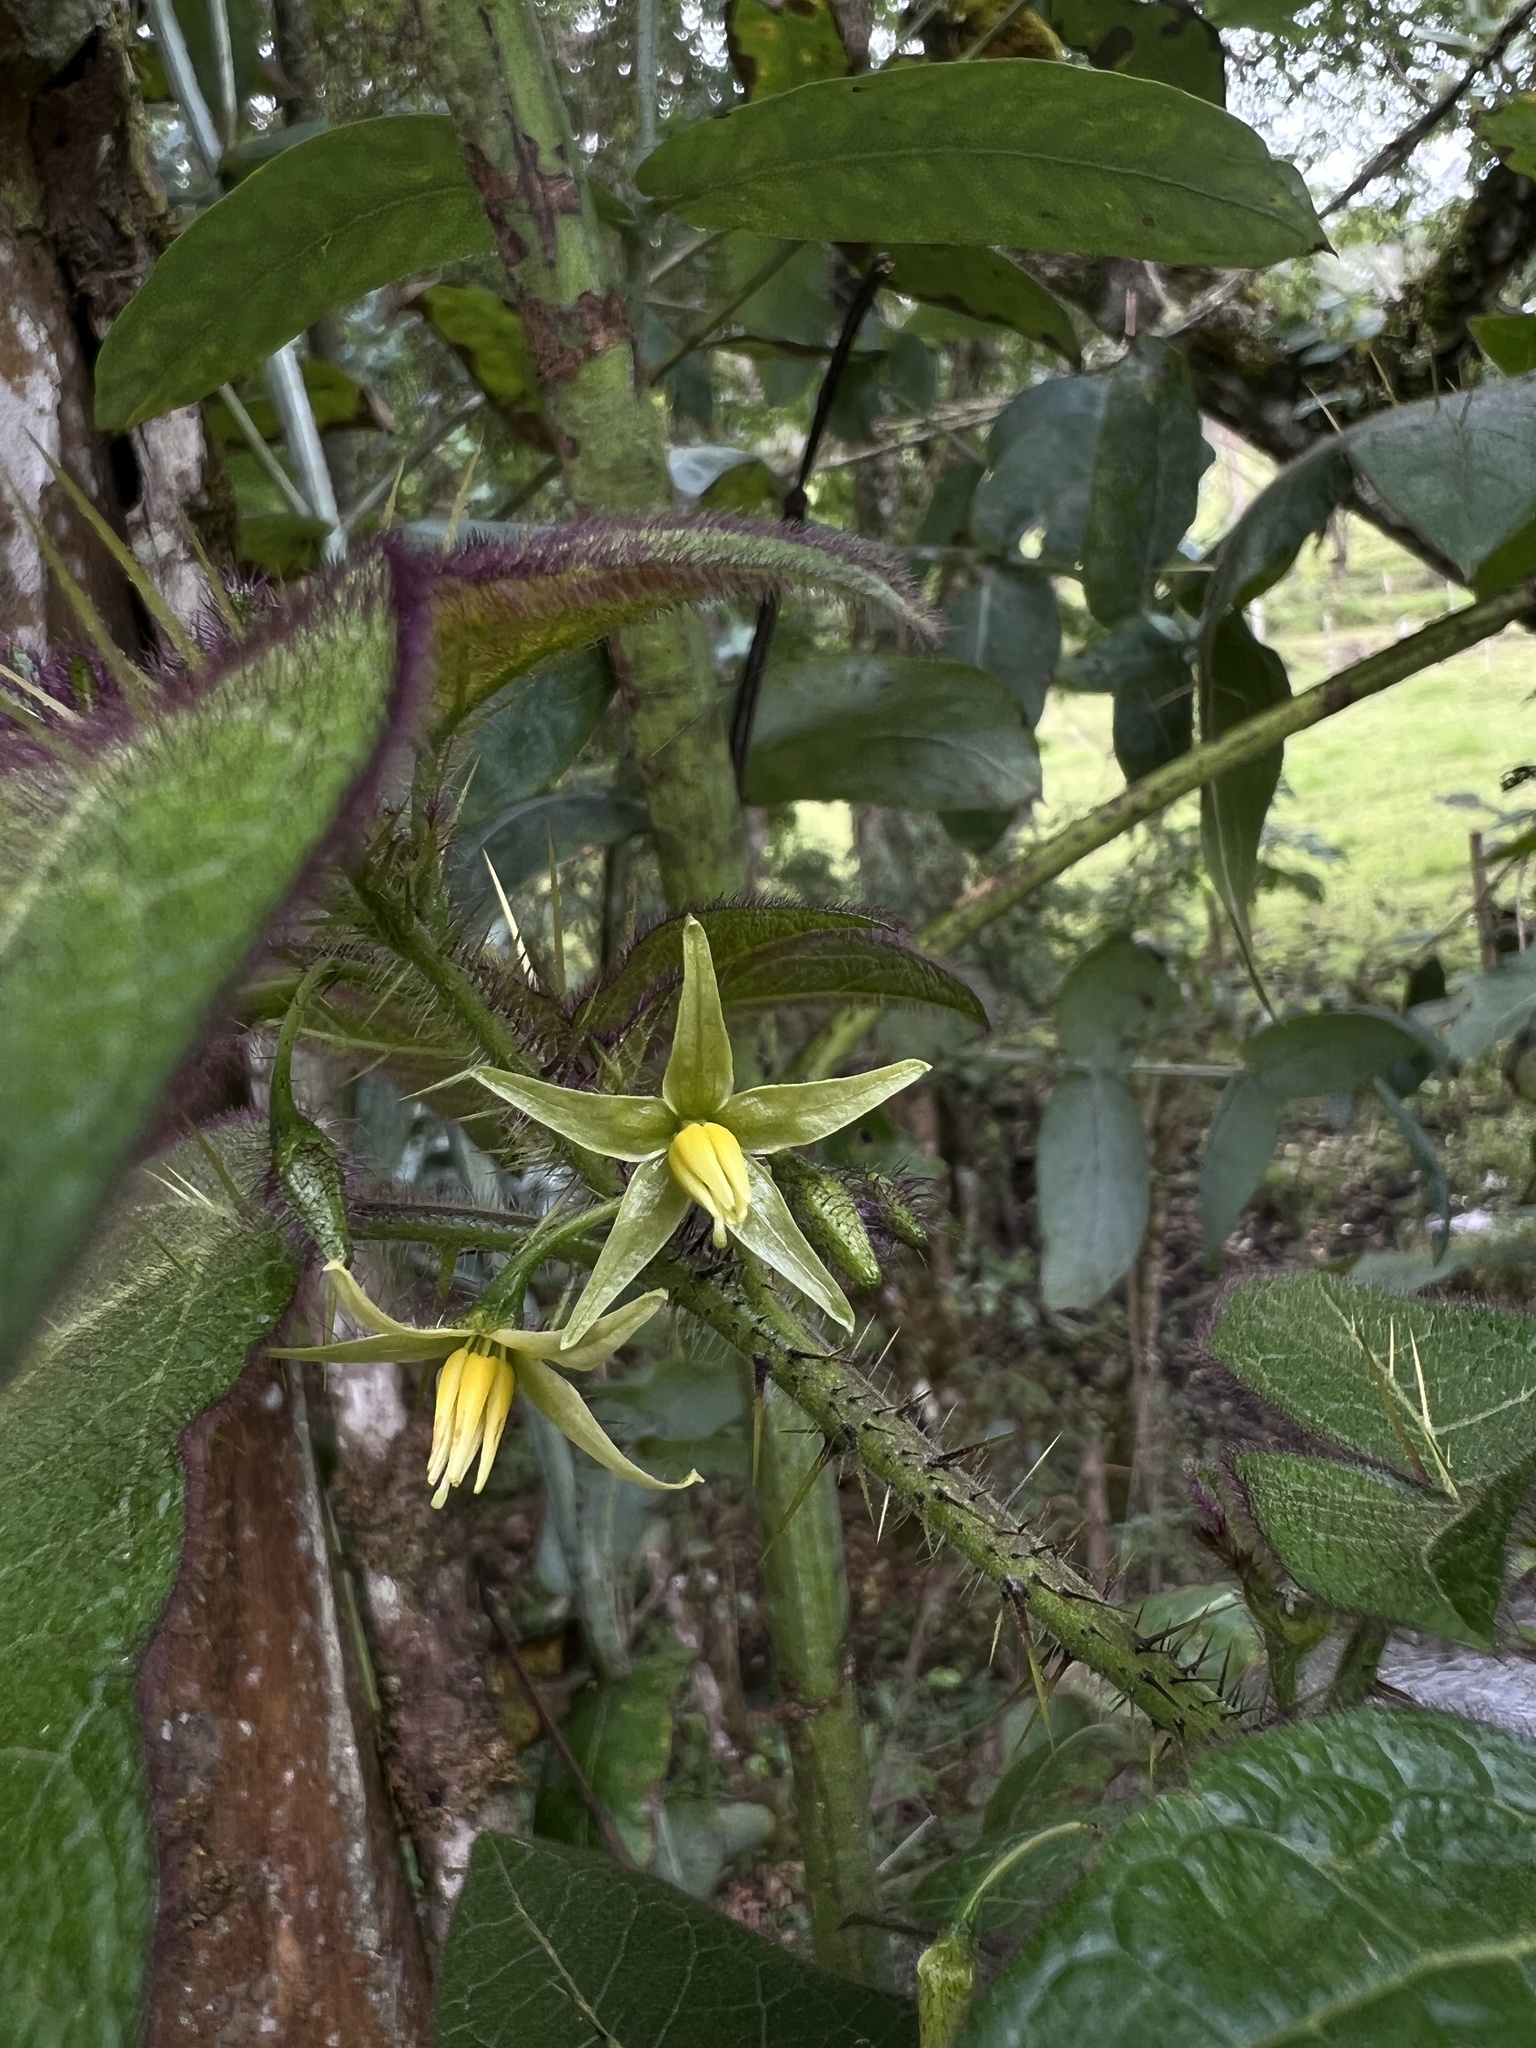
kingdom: Plantae
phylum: Tracheophyta
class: Magnoliopsida
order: Solanales
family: Solanaceae
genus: Solanum
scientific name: Solanum acerifolium
